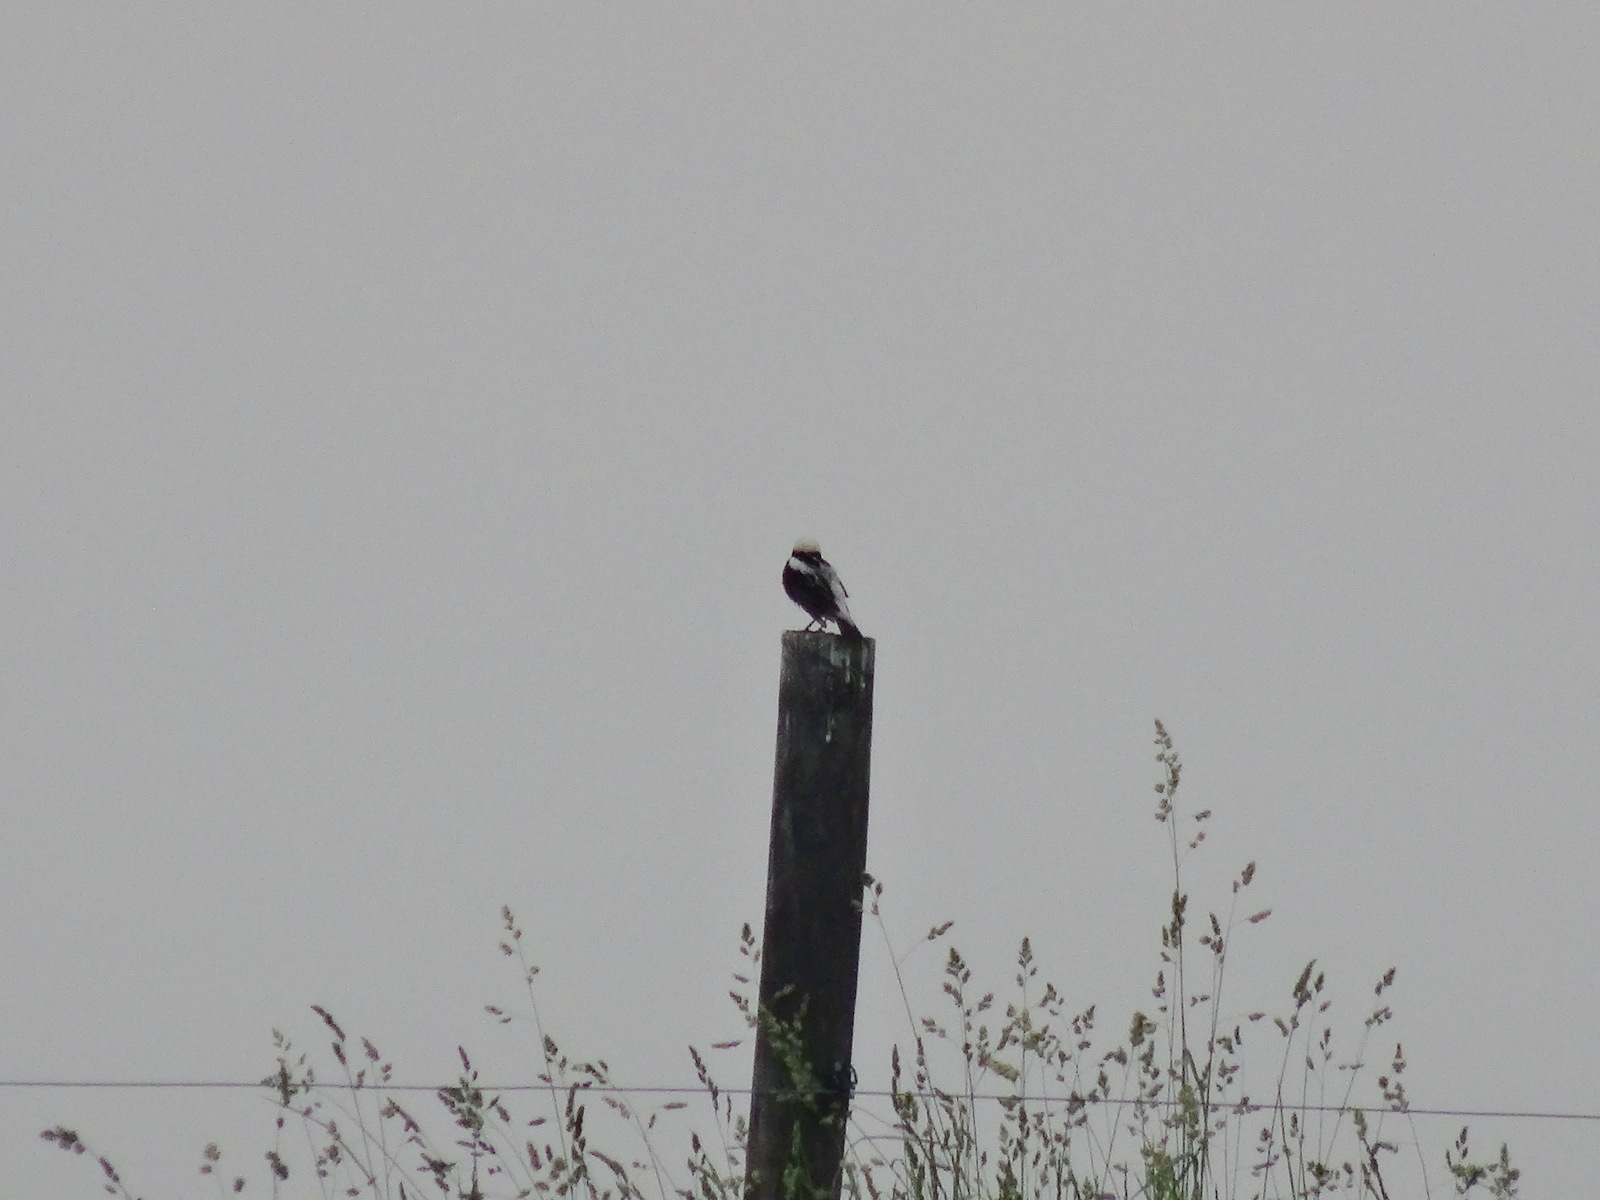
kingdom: Animalia
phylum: Chordata
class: Aves
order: Passeriformes
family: Icteridae
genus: Dolichonyx
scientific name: Dolichonyx oryzivorus
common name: Bobolink
